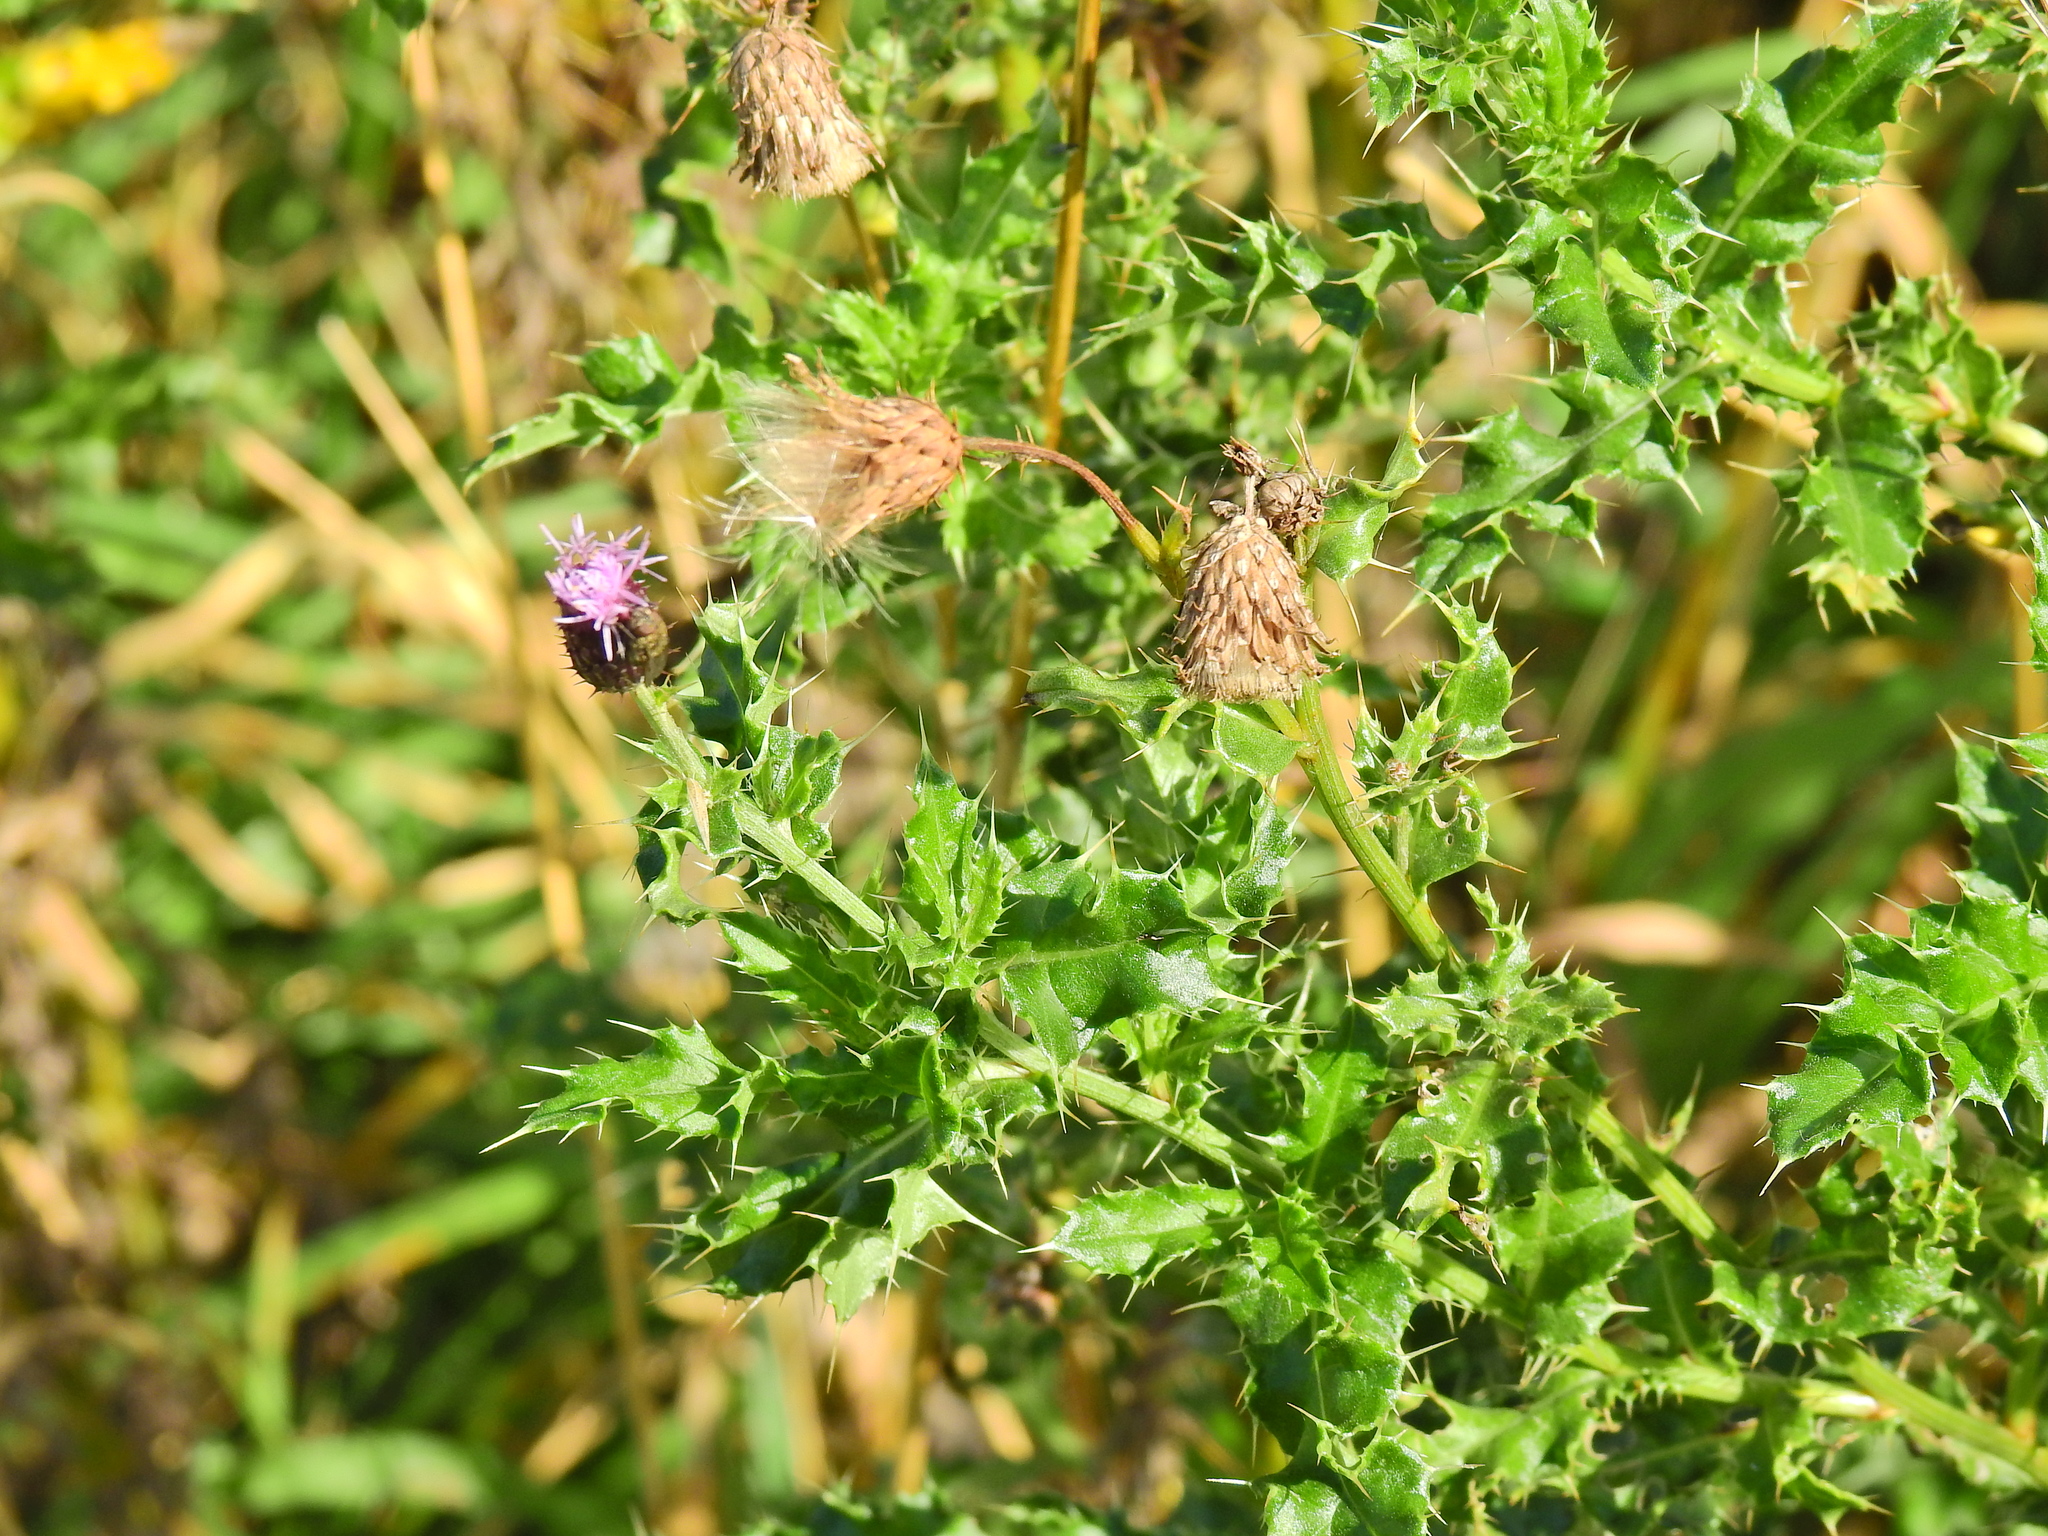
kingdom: Plantae
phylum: Tracheophyta
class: Magnoliopsida
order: Asterales
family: Asteraceae
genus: Cirsium
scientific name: Cirsium arvense
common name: Creeping thistle
